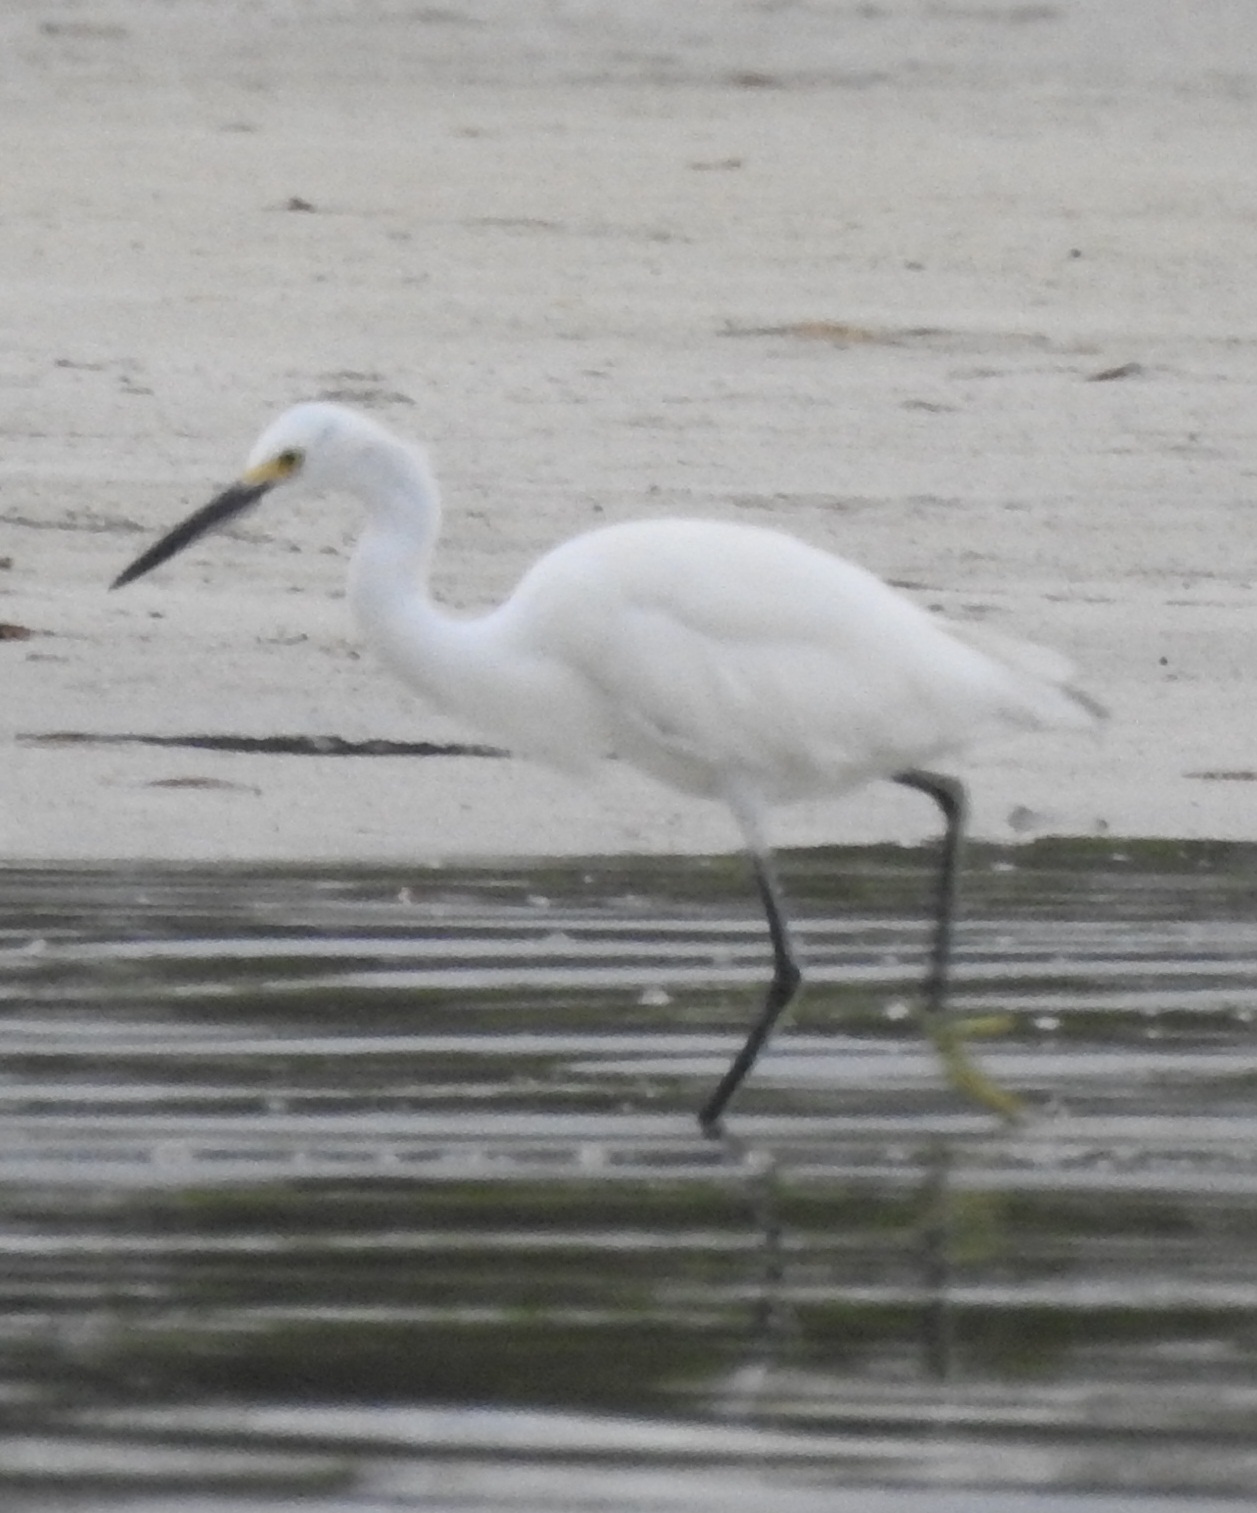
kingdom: Animalia
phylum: Chordata
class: Aves
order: Pelecaniformes
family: Ardeidae
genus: Egretta
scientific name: Egretta thula
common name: Snowy egret
